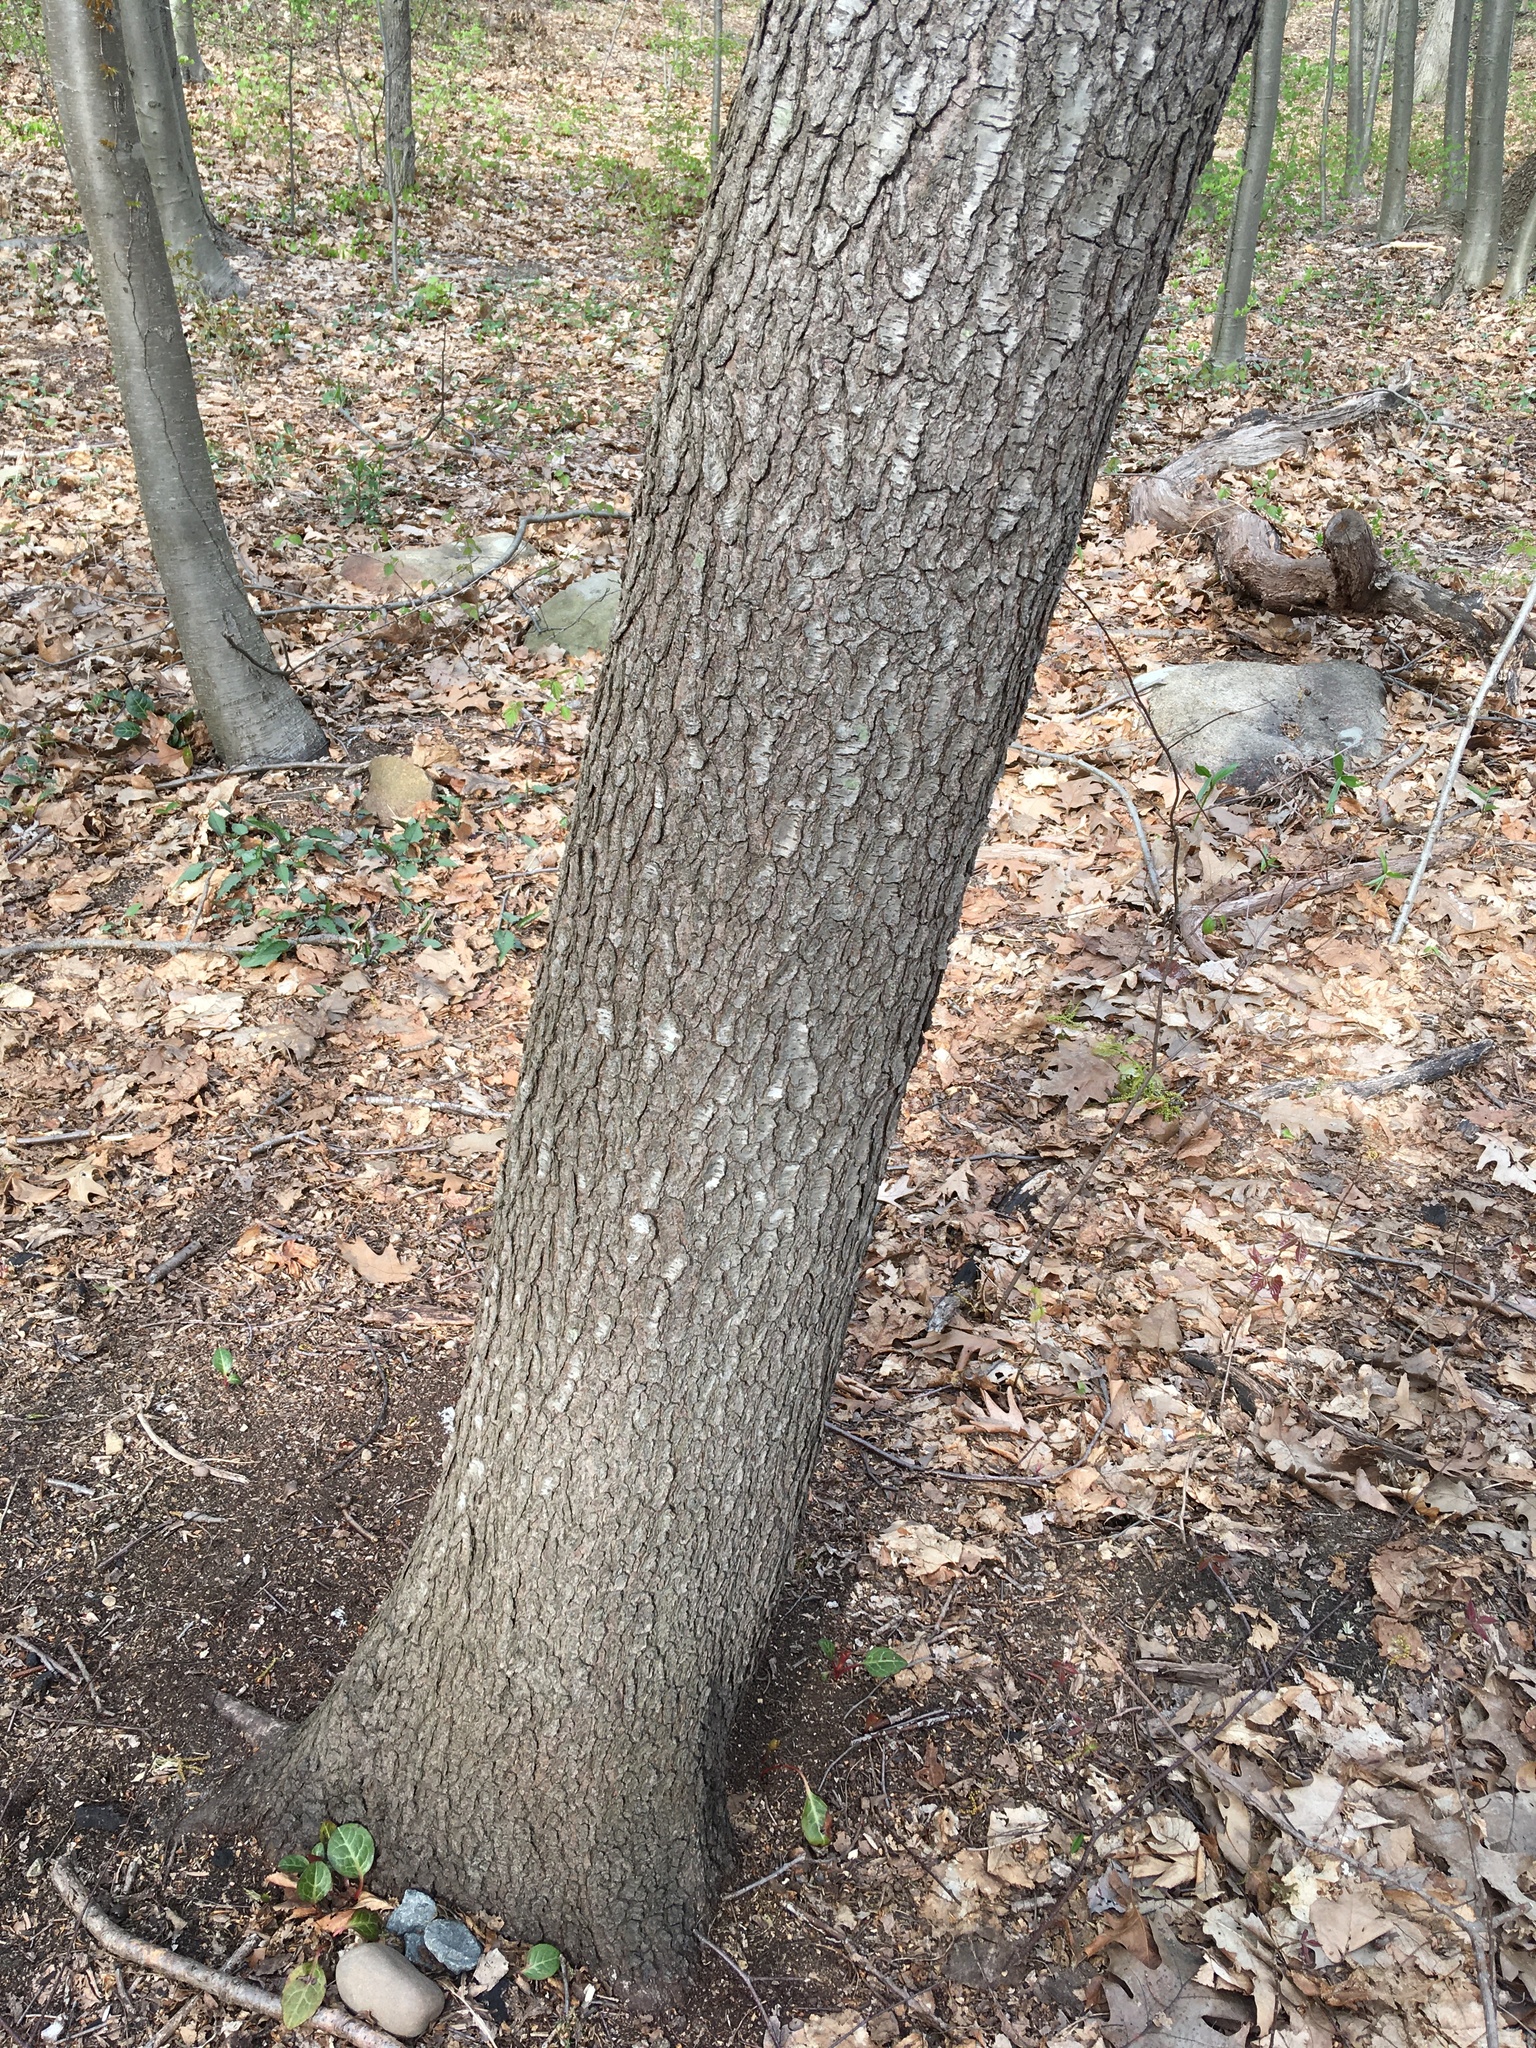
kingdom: Plantae
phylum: Tracheophyta
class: Magnoliopsida
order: Rosales
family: Rosaceae
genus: Prunus
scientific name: Prunus serotina
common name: Black cherry
